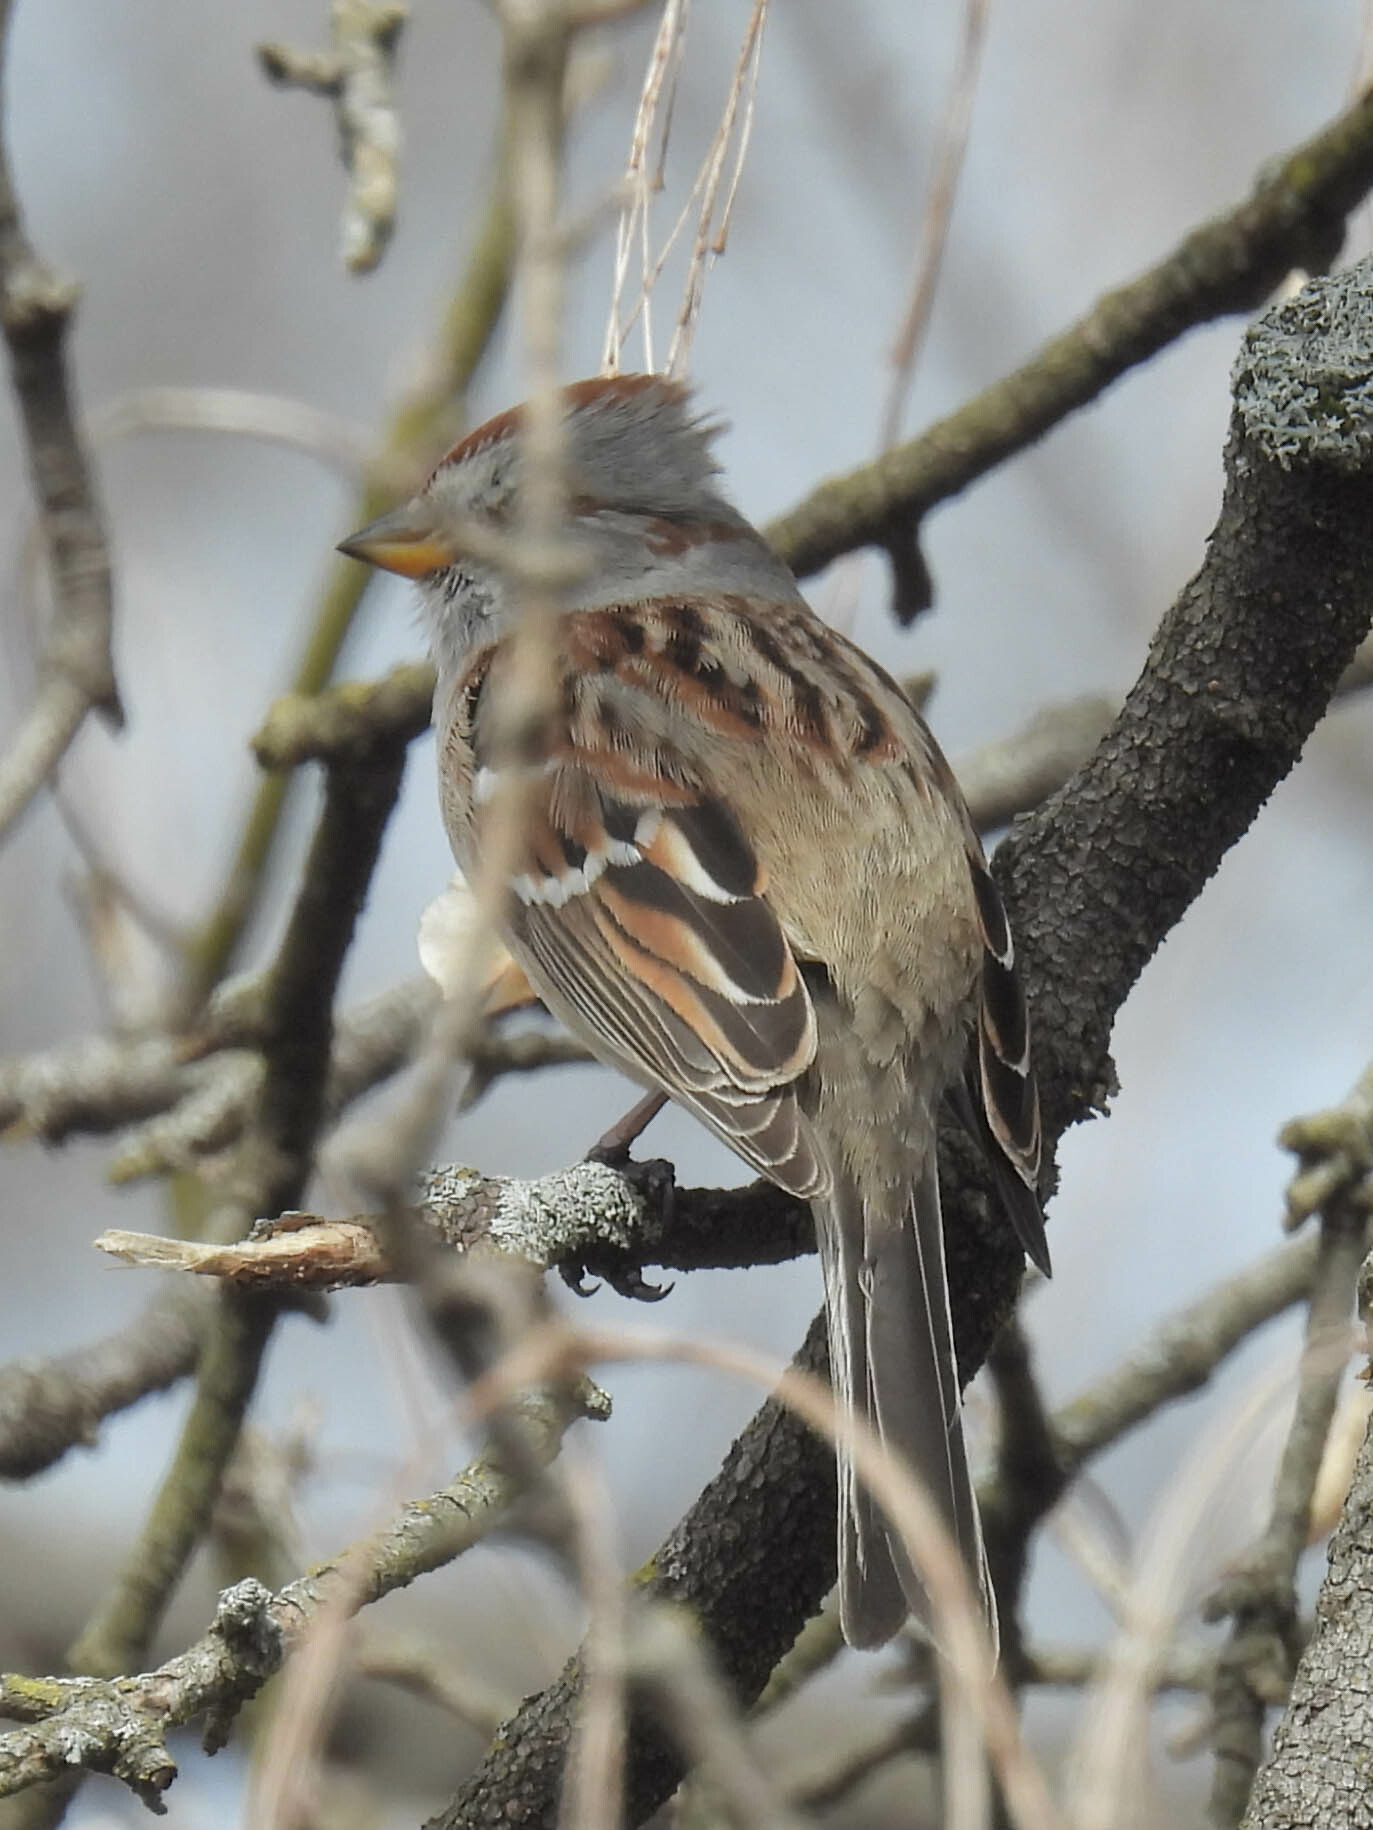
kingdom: Animalia
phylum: Chordata
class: Aves
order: Passeriformes
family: Passerellidae
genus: Spizelloides
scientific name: Spizelloides arborea
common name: American tree sparrow
